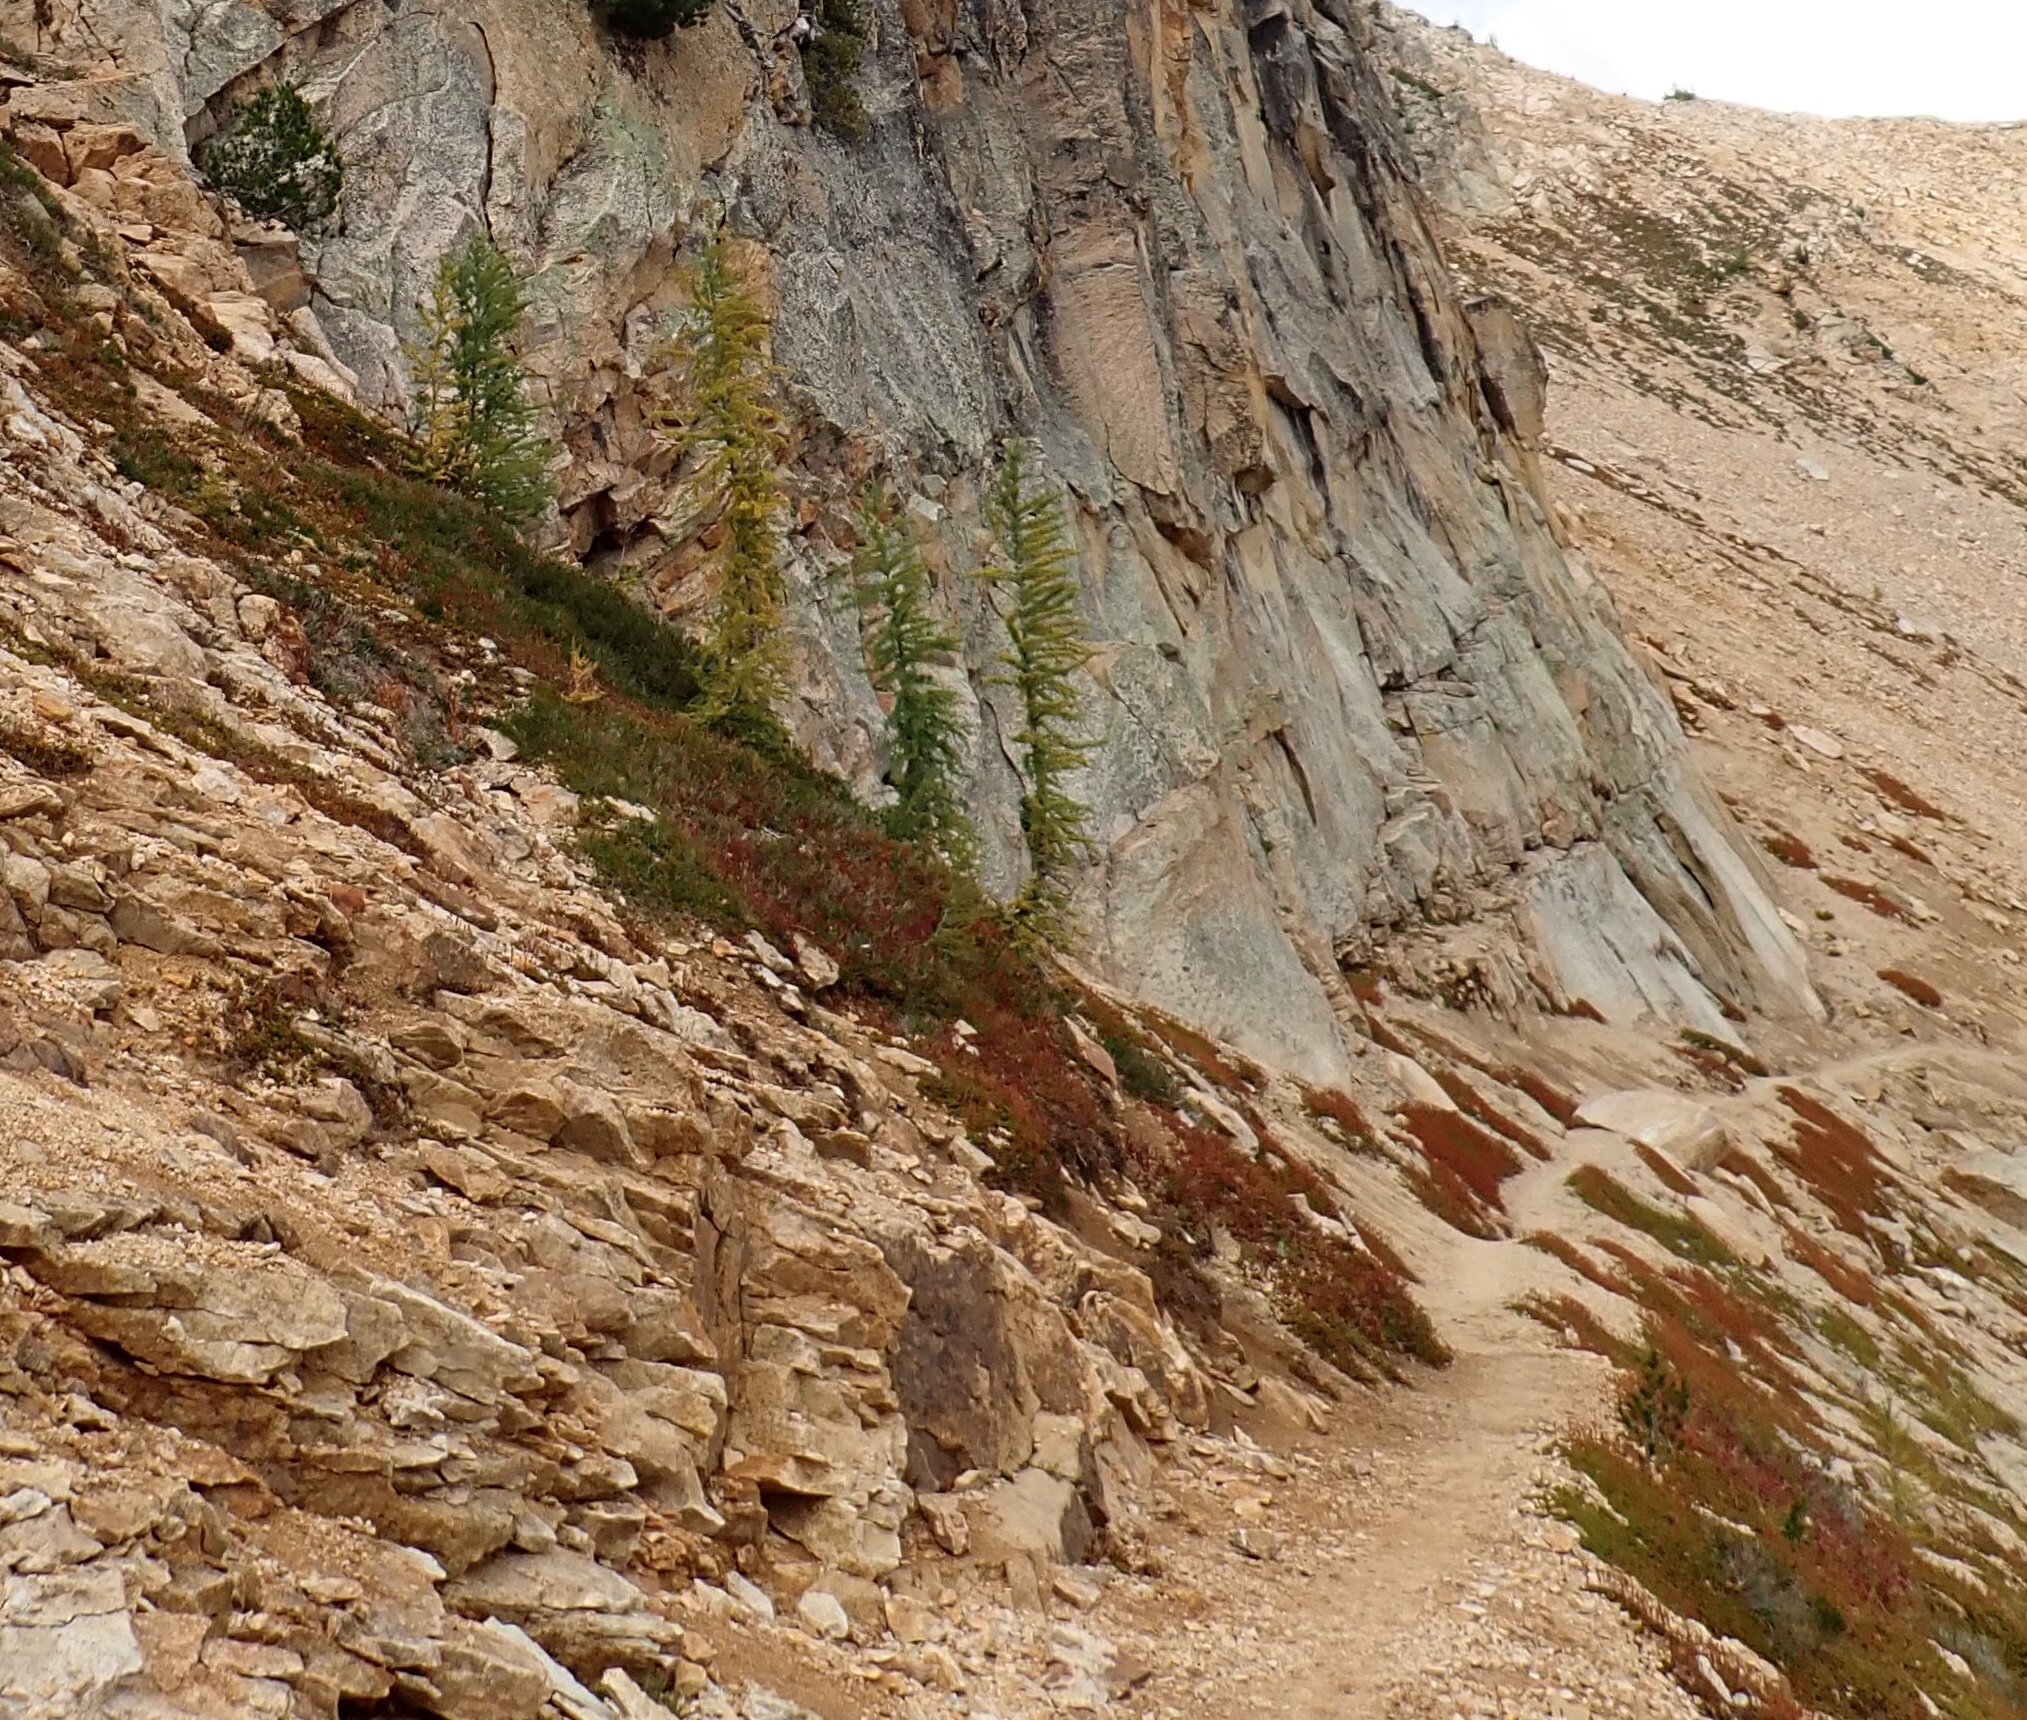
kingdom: Plantae
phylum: Tracheophyta
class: Pinopsida
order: Pinales
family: Pinaceae
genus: Larix
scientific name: Larix lyallii
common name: Alpine larch
